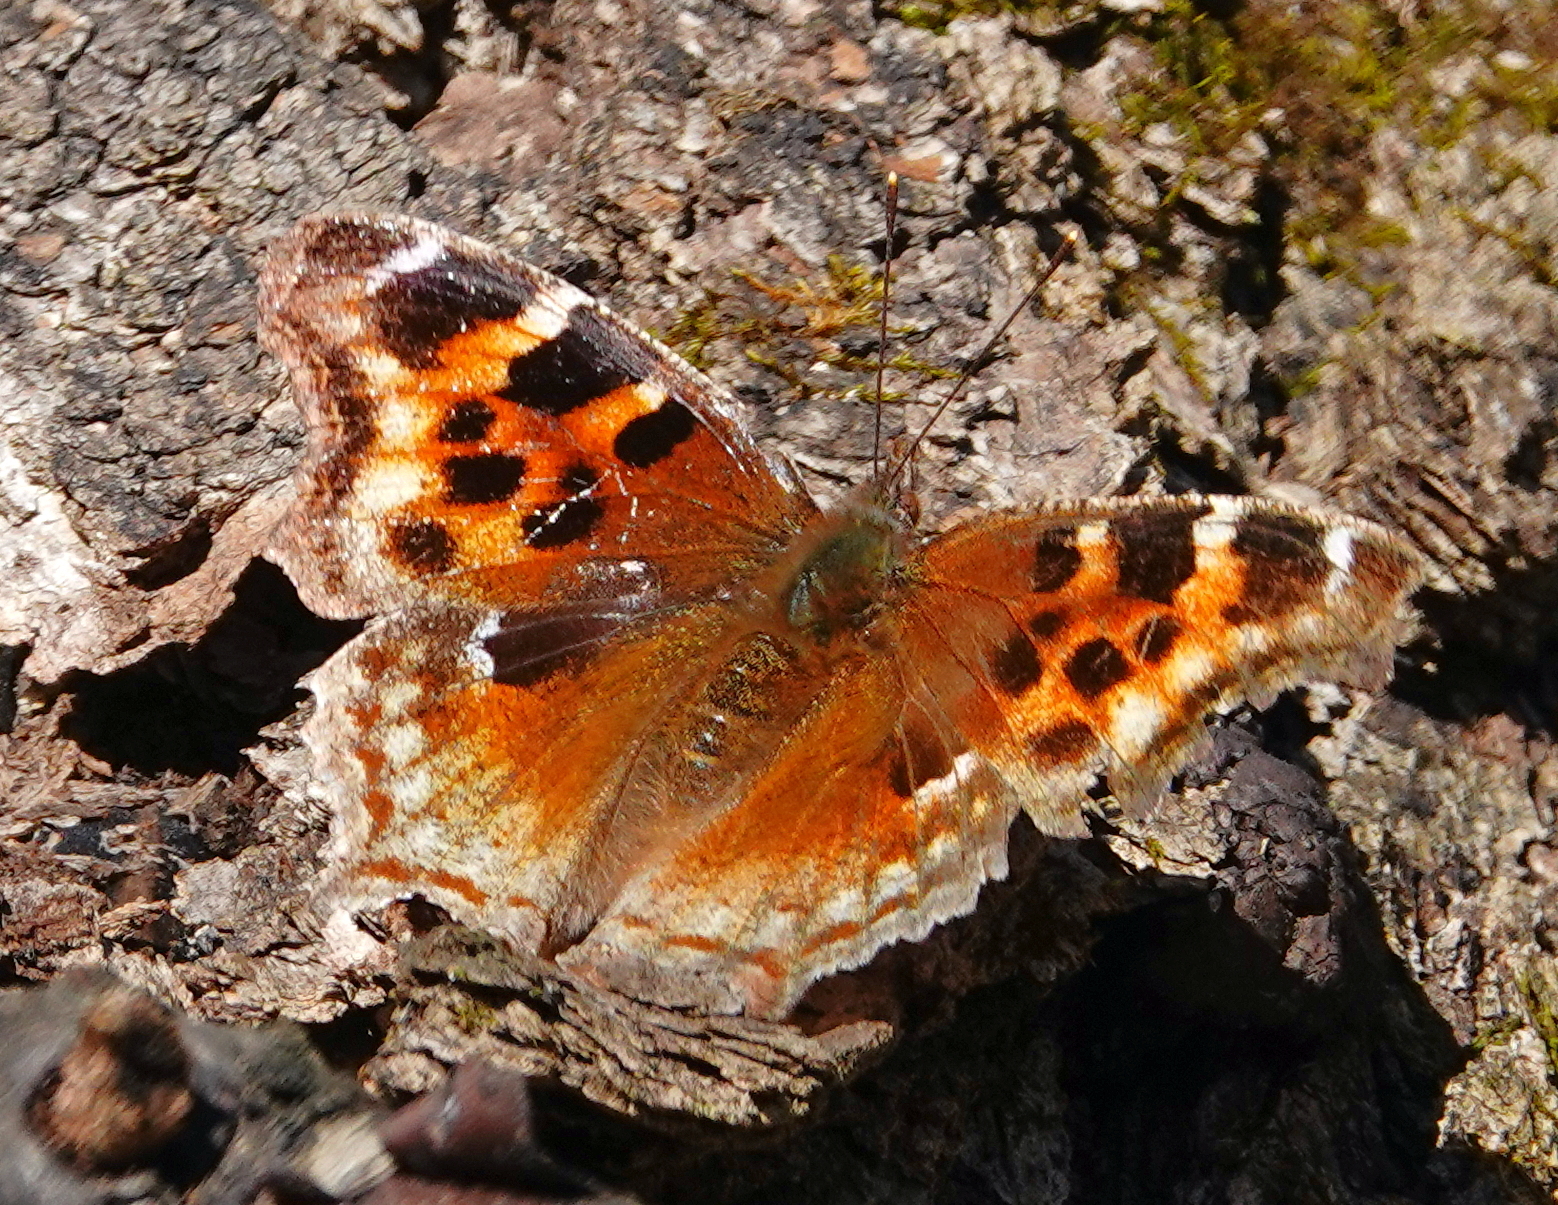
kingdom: Animalia
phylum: Arthropoda
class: Insecta
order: Lepidoptera
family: Nymphalidae
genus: Polygonia
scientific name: Polygonia vaualbum
